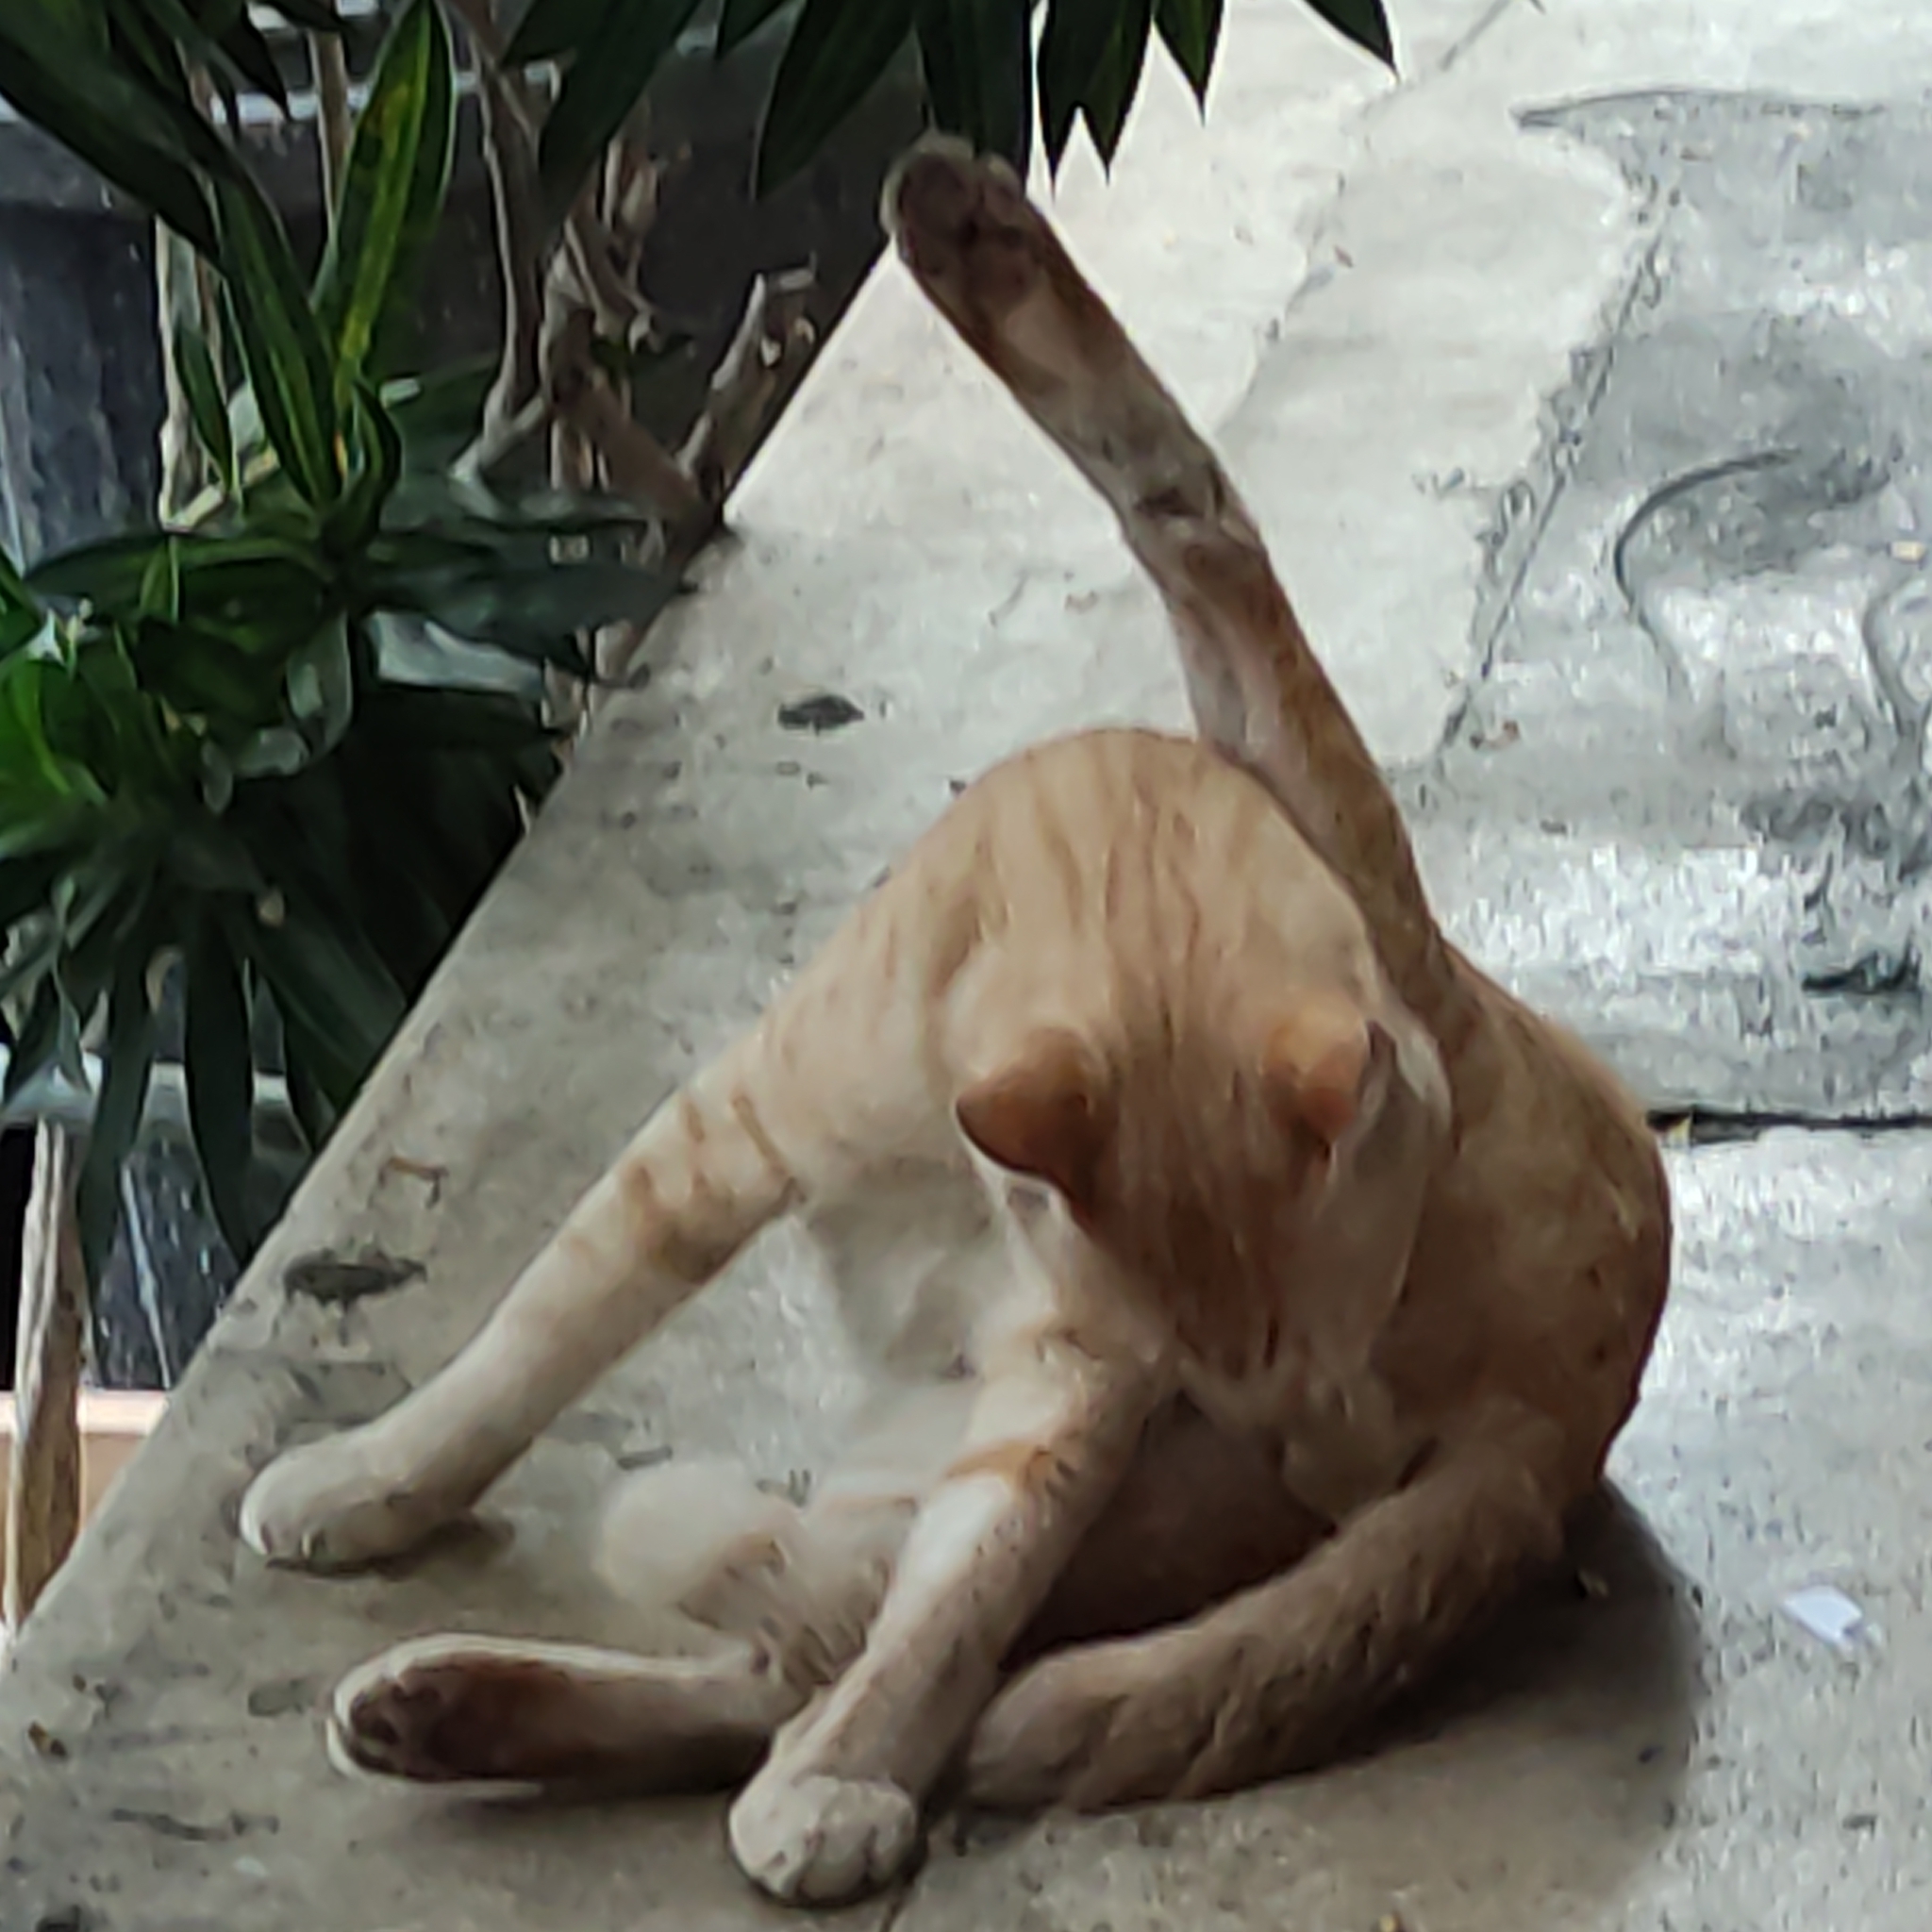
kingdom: Animalia
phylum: Chordata
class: Mammalia
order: Carnivora
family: Felidae
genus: Felis
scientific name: Felis catus
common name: Domestic cat
